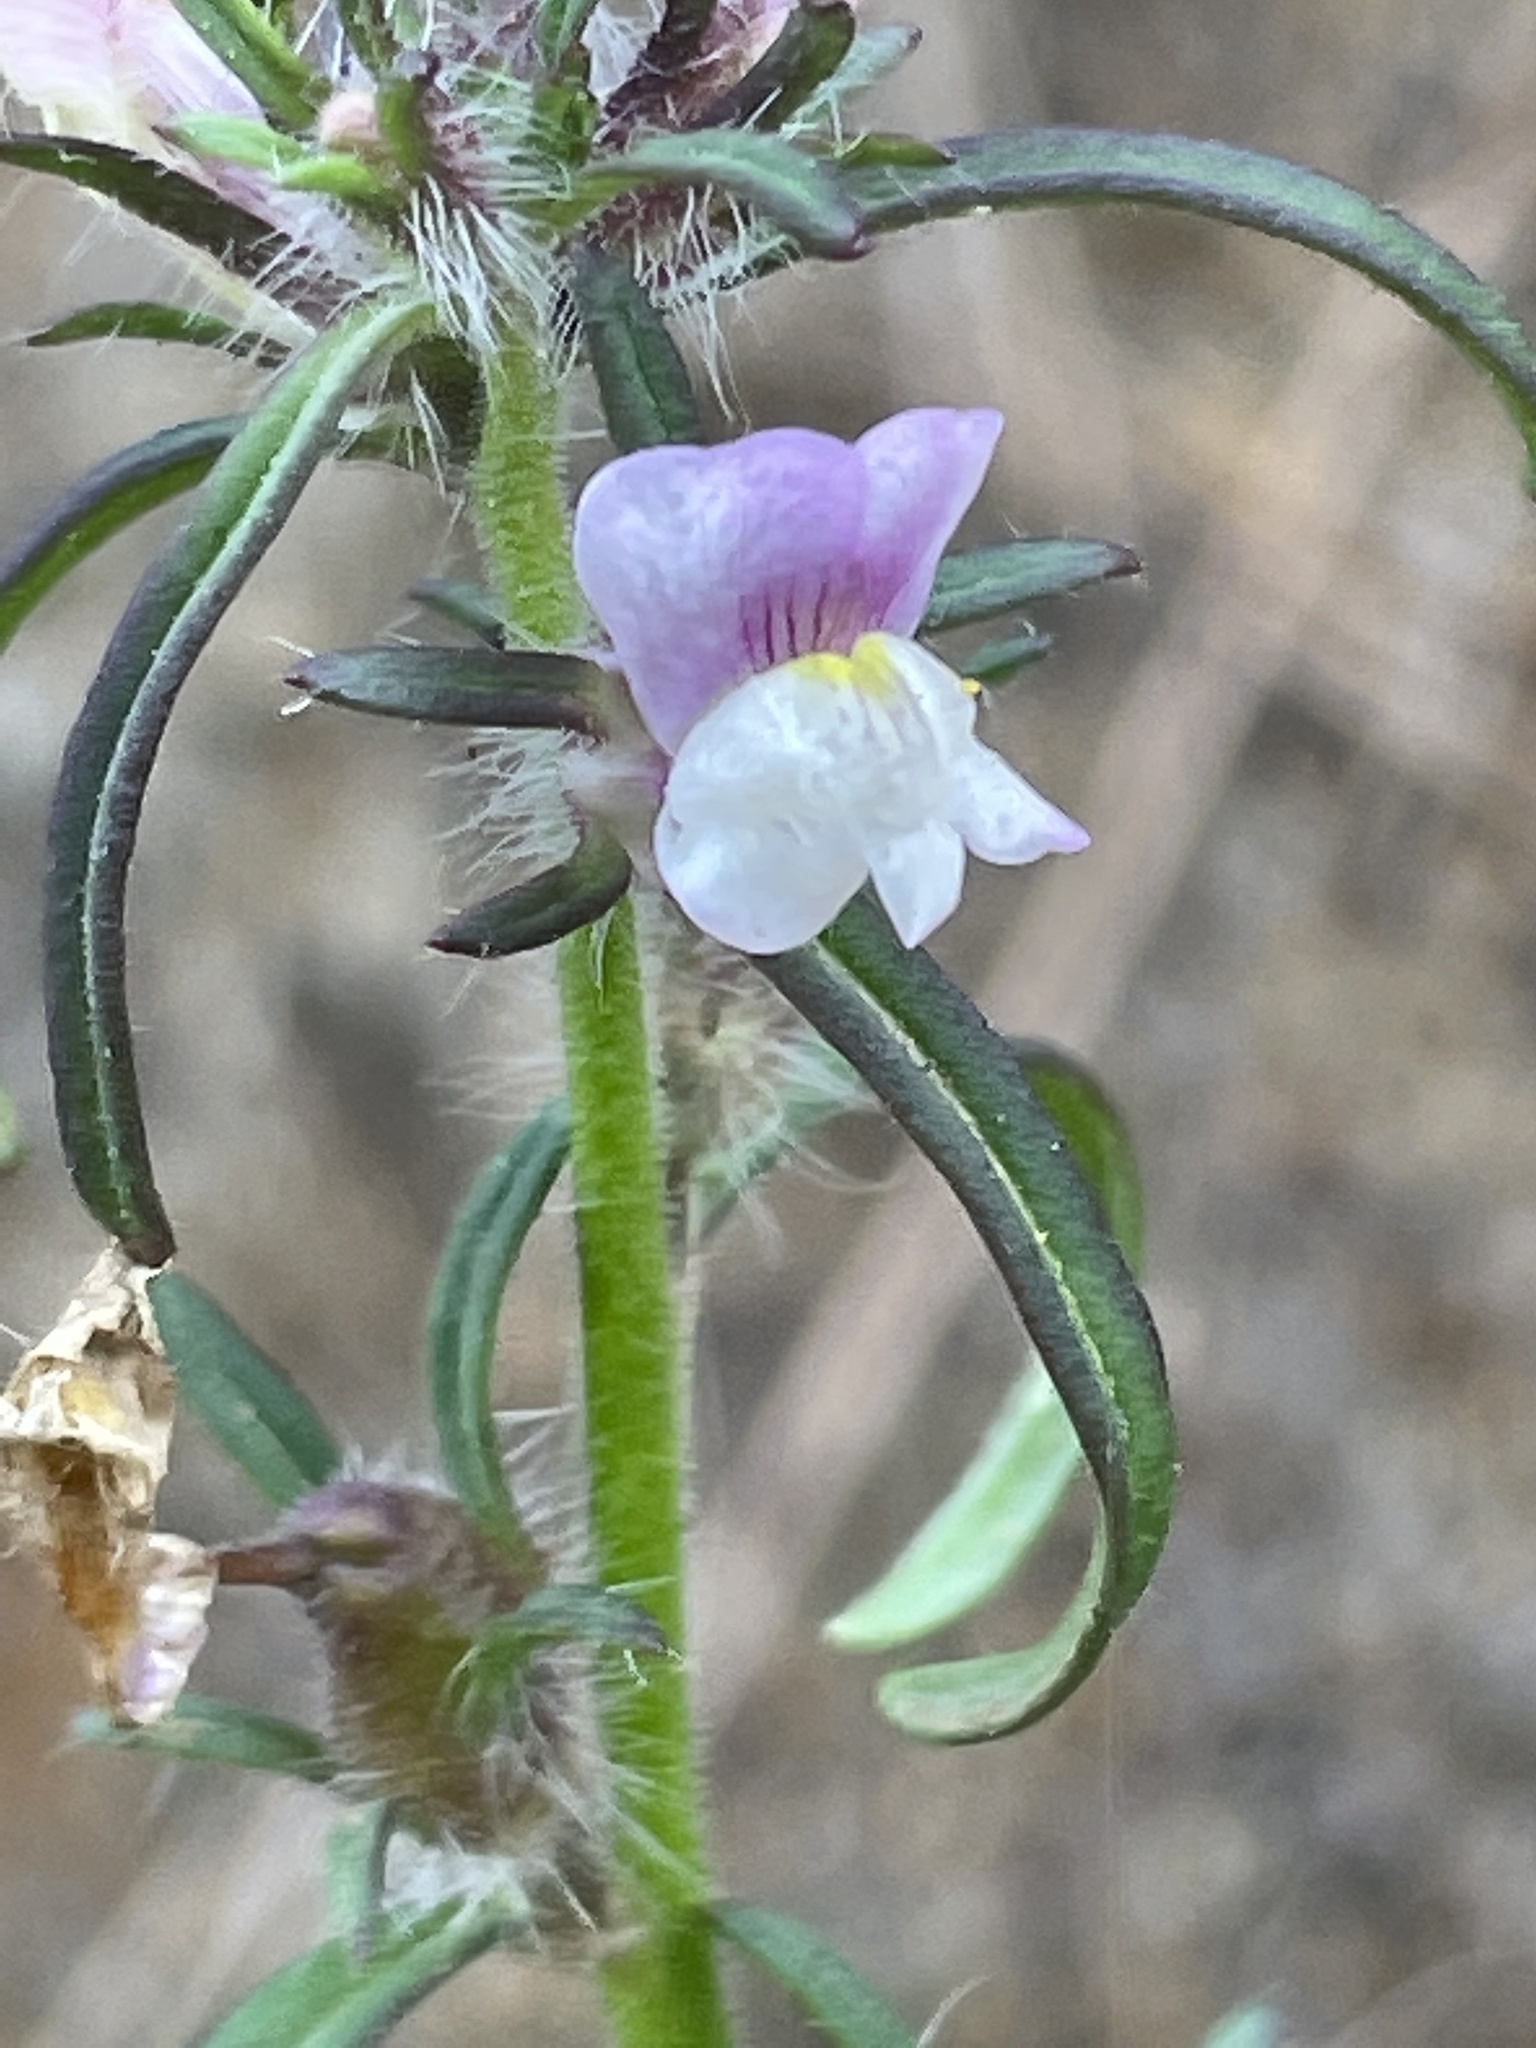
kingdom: Plantae
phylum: Tracheophyta
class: Magnoliopsida
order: Lamiales
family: Plantaginaceae
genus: Misopates
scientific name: Misopates orontium
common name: Weasel's-snout
